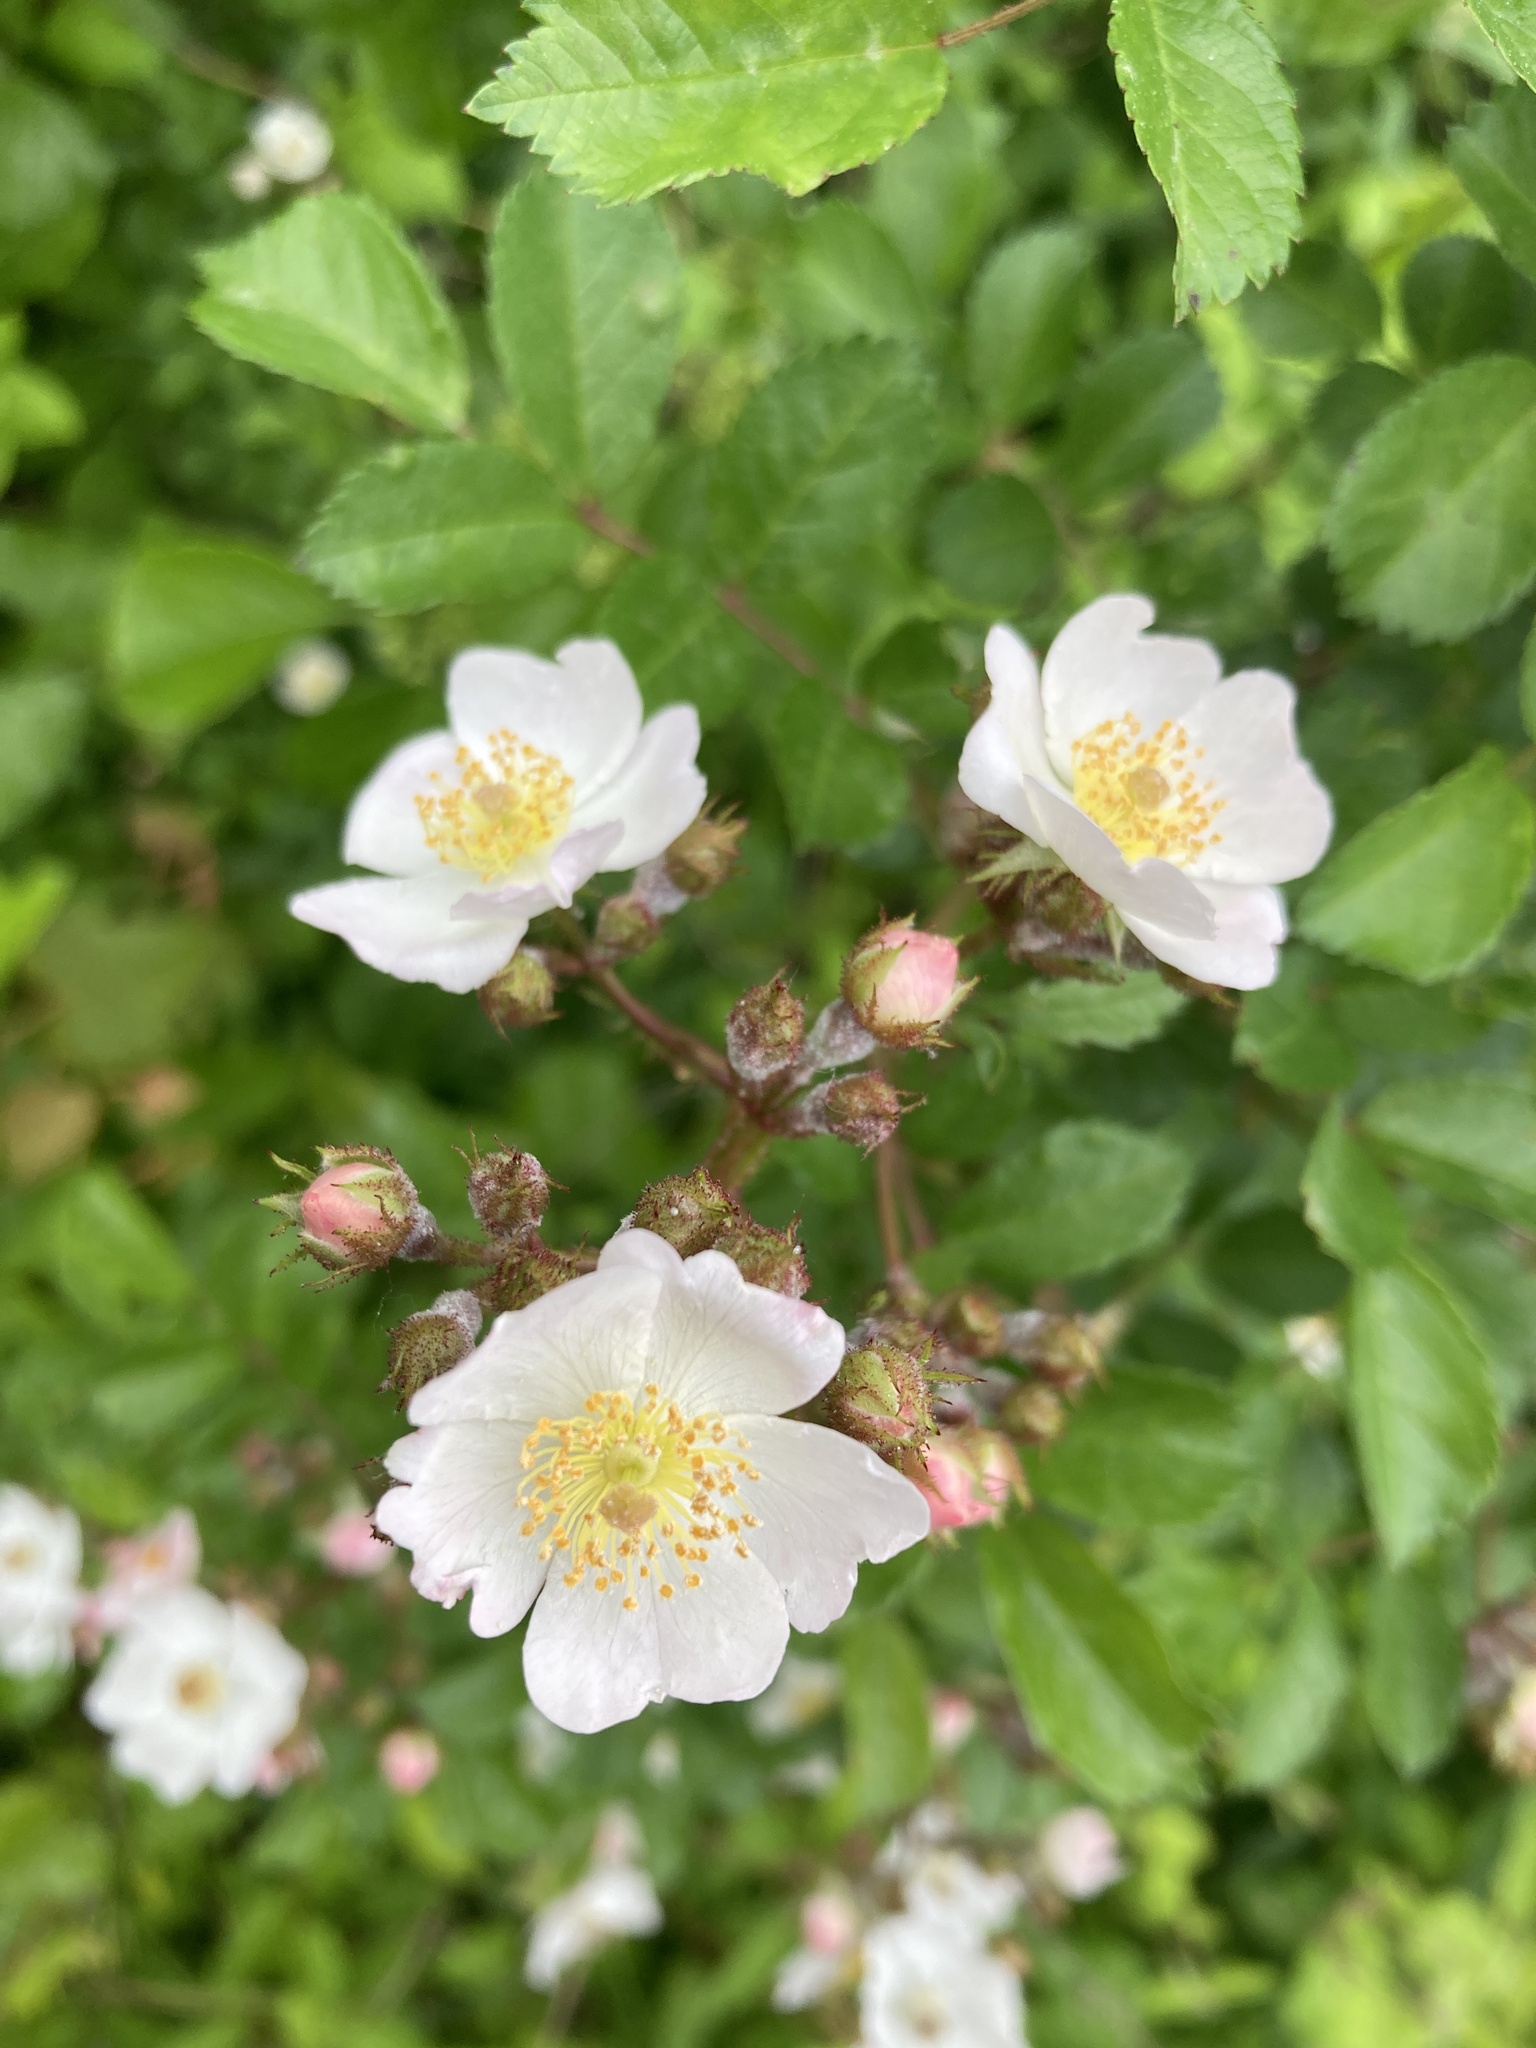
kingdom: Plantae
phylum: Tracheophyta
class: Magnoliopsida
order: Rosales
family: Rosaceae
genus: Rosa
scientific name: Rosa multiflora
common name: Multiflora rose
